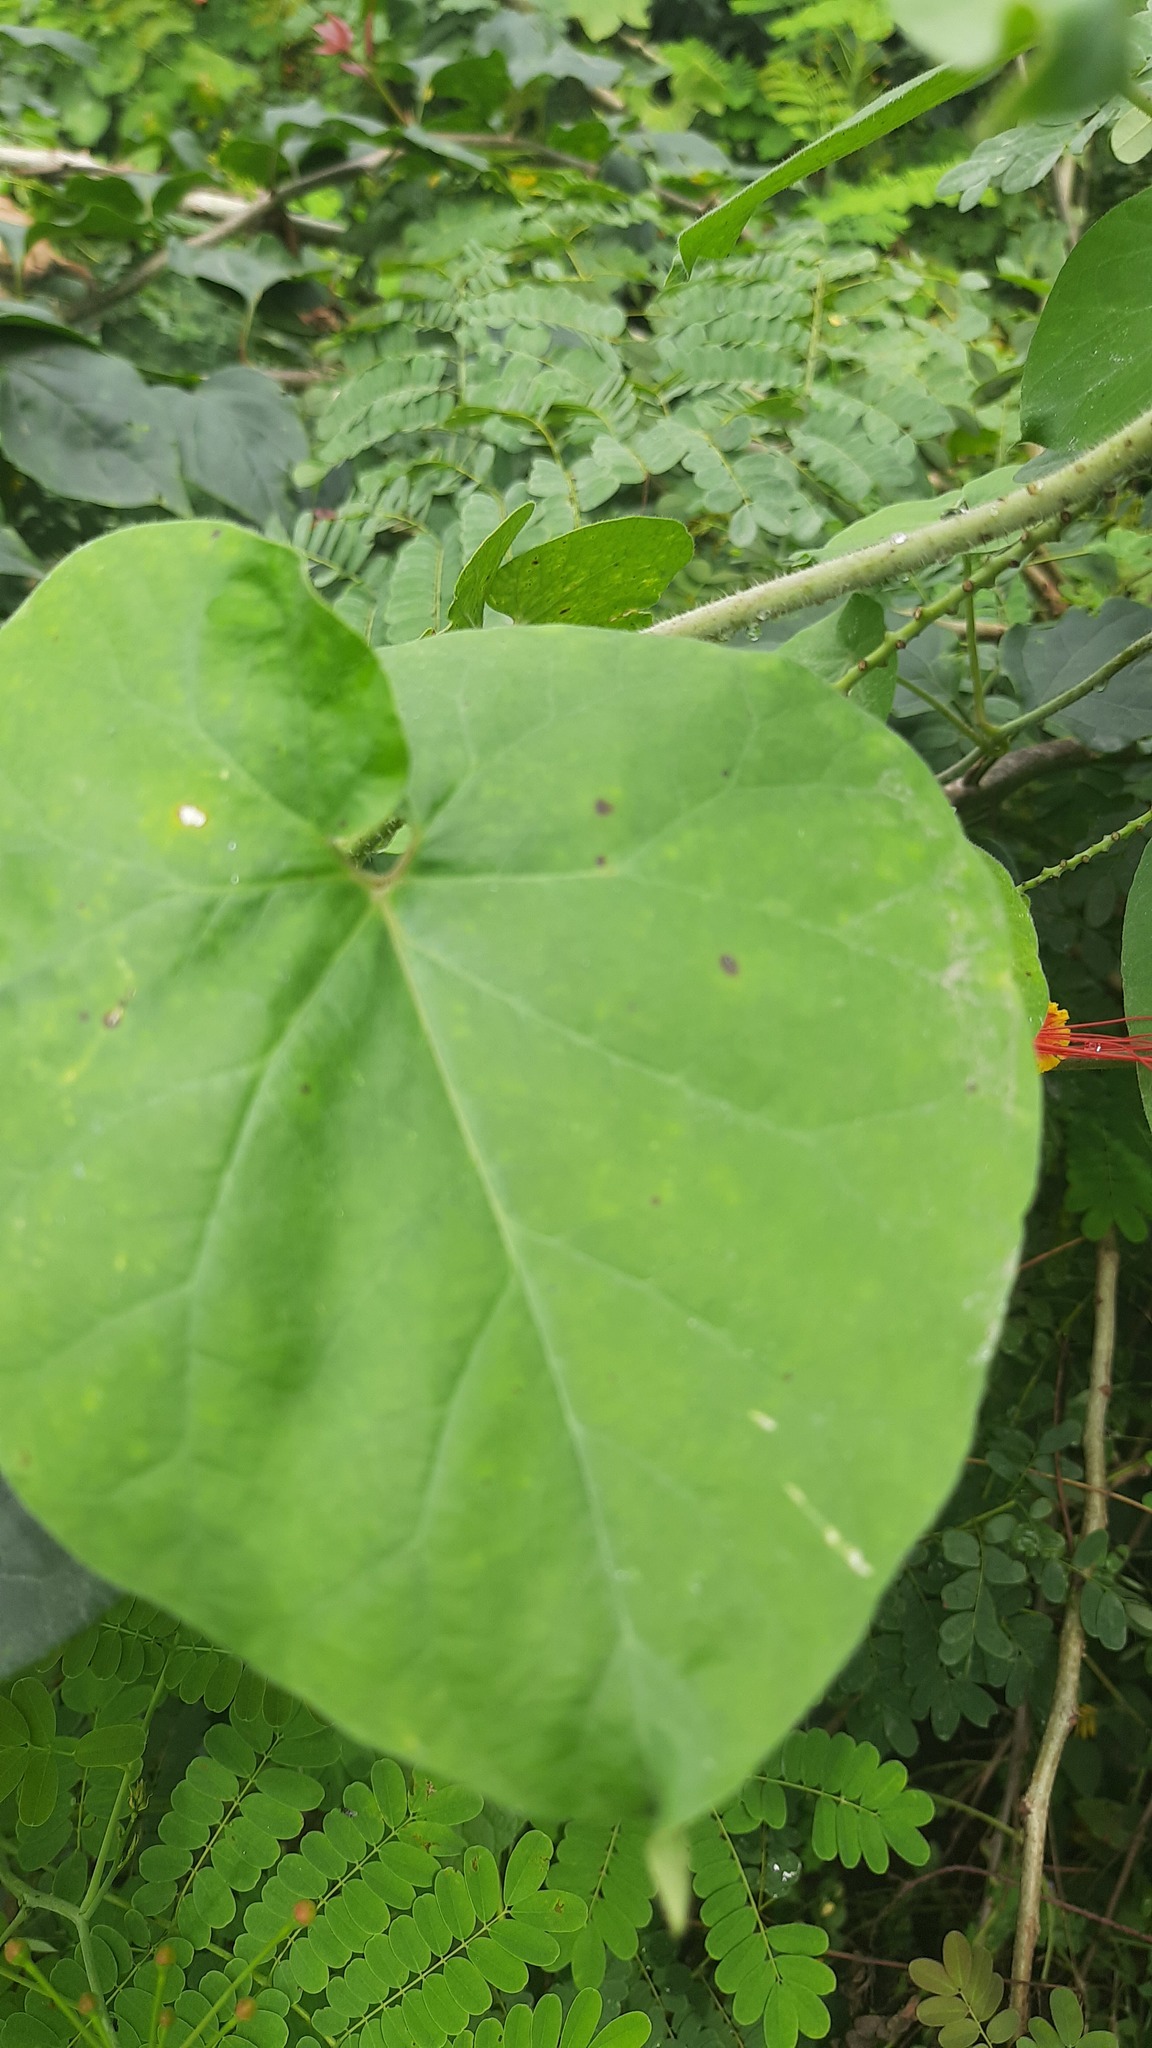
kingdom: Plantae
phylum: Tracheophyta
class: Magnoliopsida
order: Fabales
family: Fabaceae
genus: Caesalpinia
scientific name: Caesalpinia pulcherrima
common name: Pride-of-barbados
